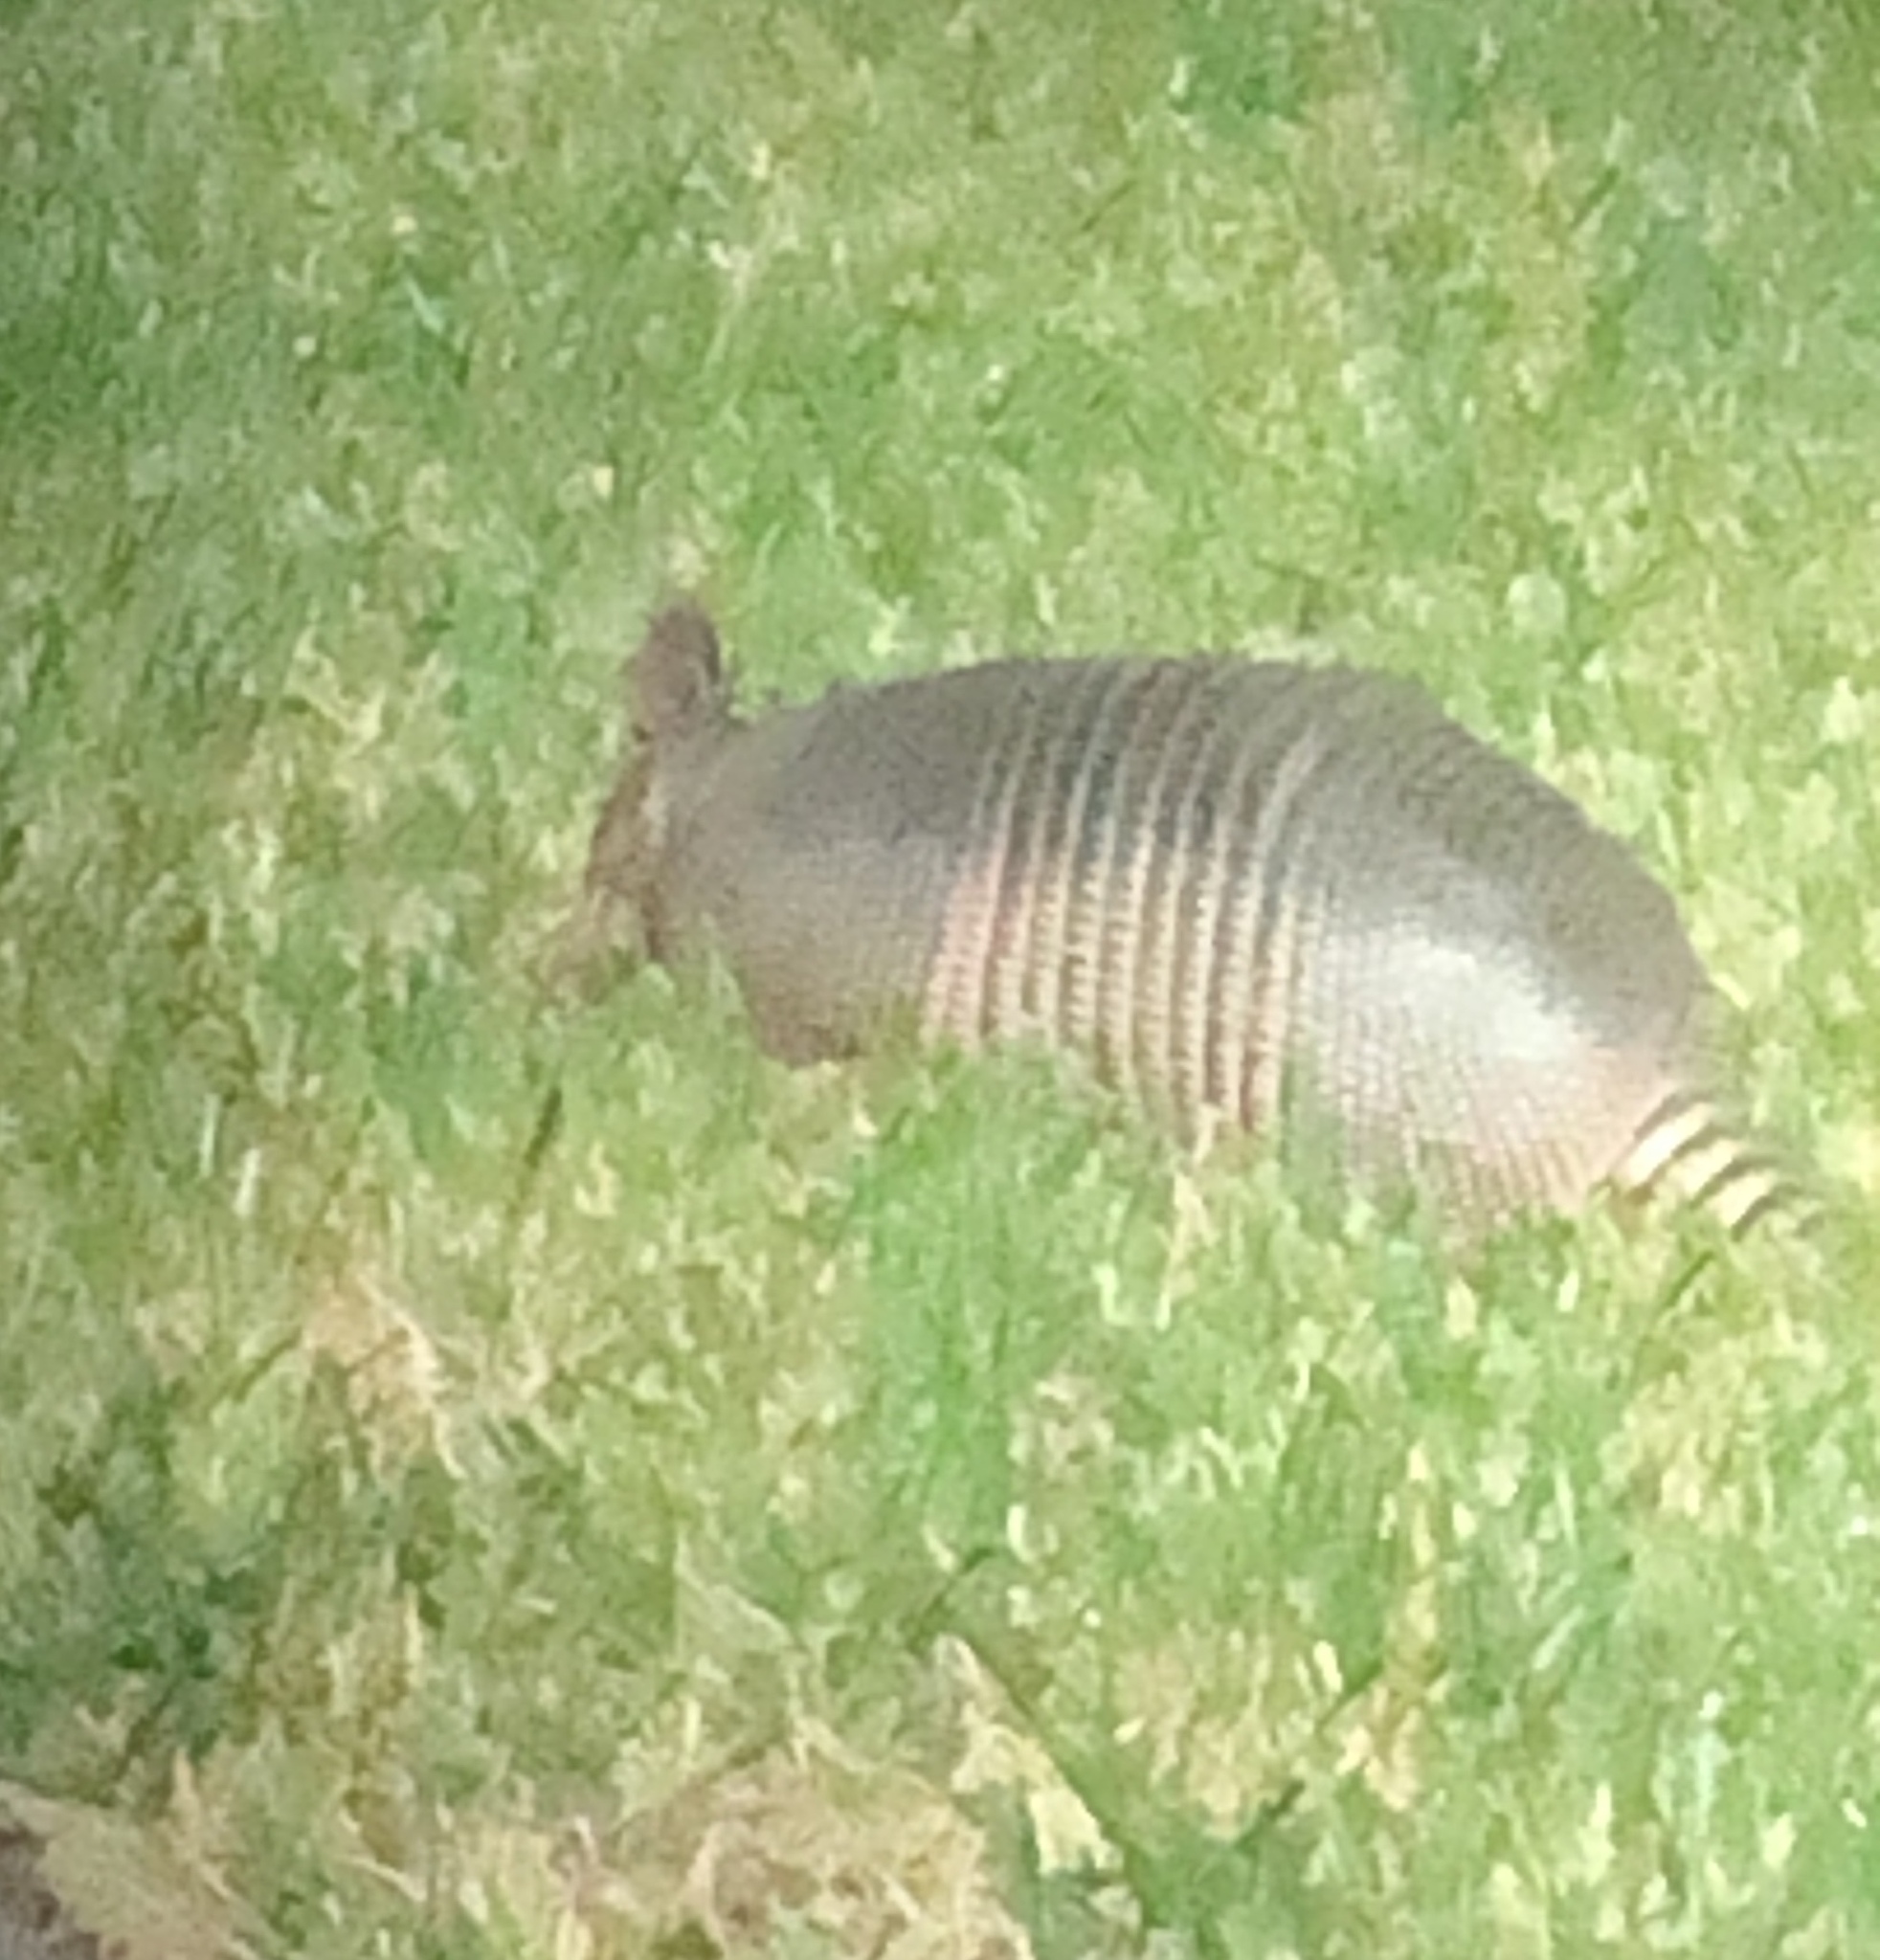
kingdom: Animalia
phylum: Chordata
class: Mammalia
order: Cingulata
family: Dasypodidae
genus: Dasypus
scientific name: Dasypus novemcinctus
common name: Nine-banded armadillo
